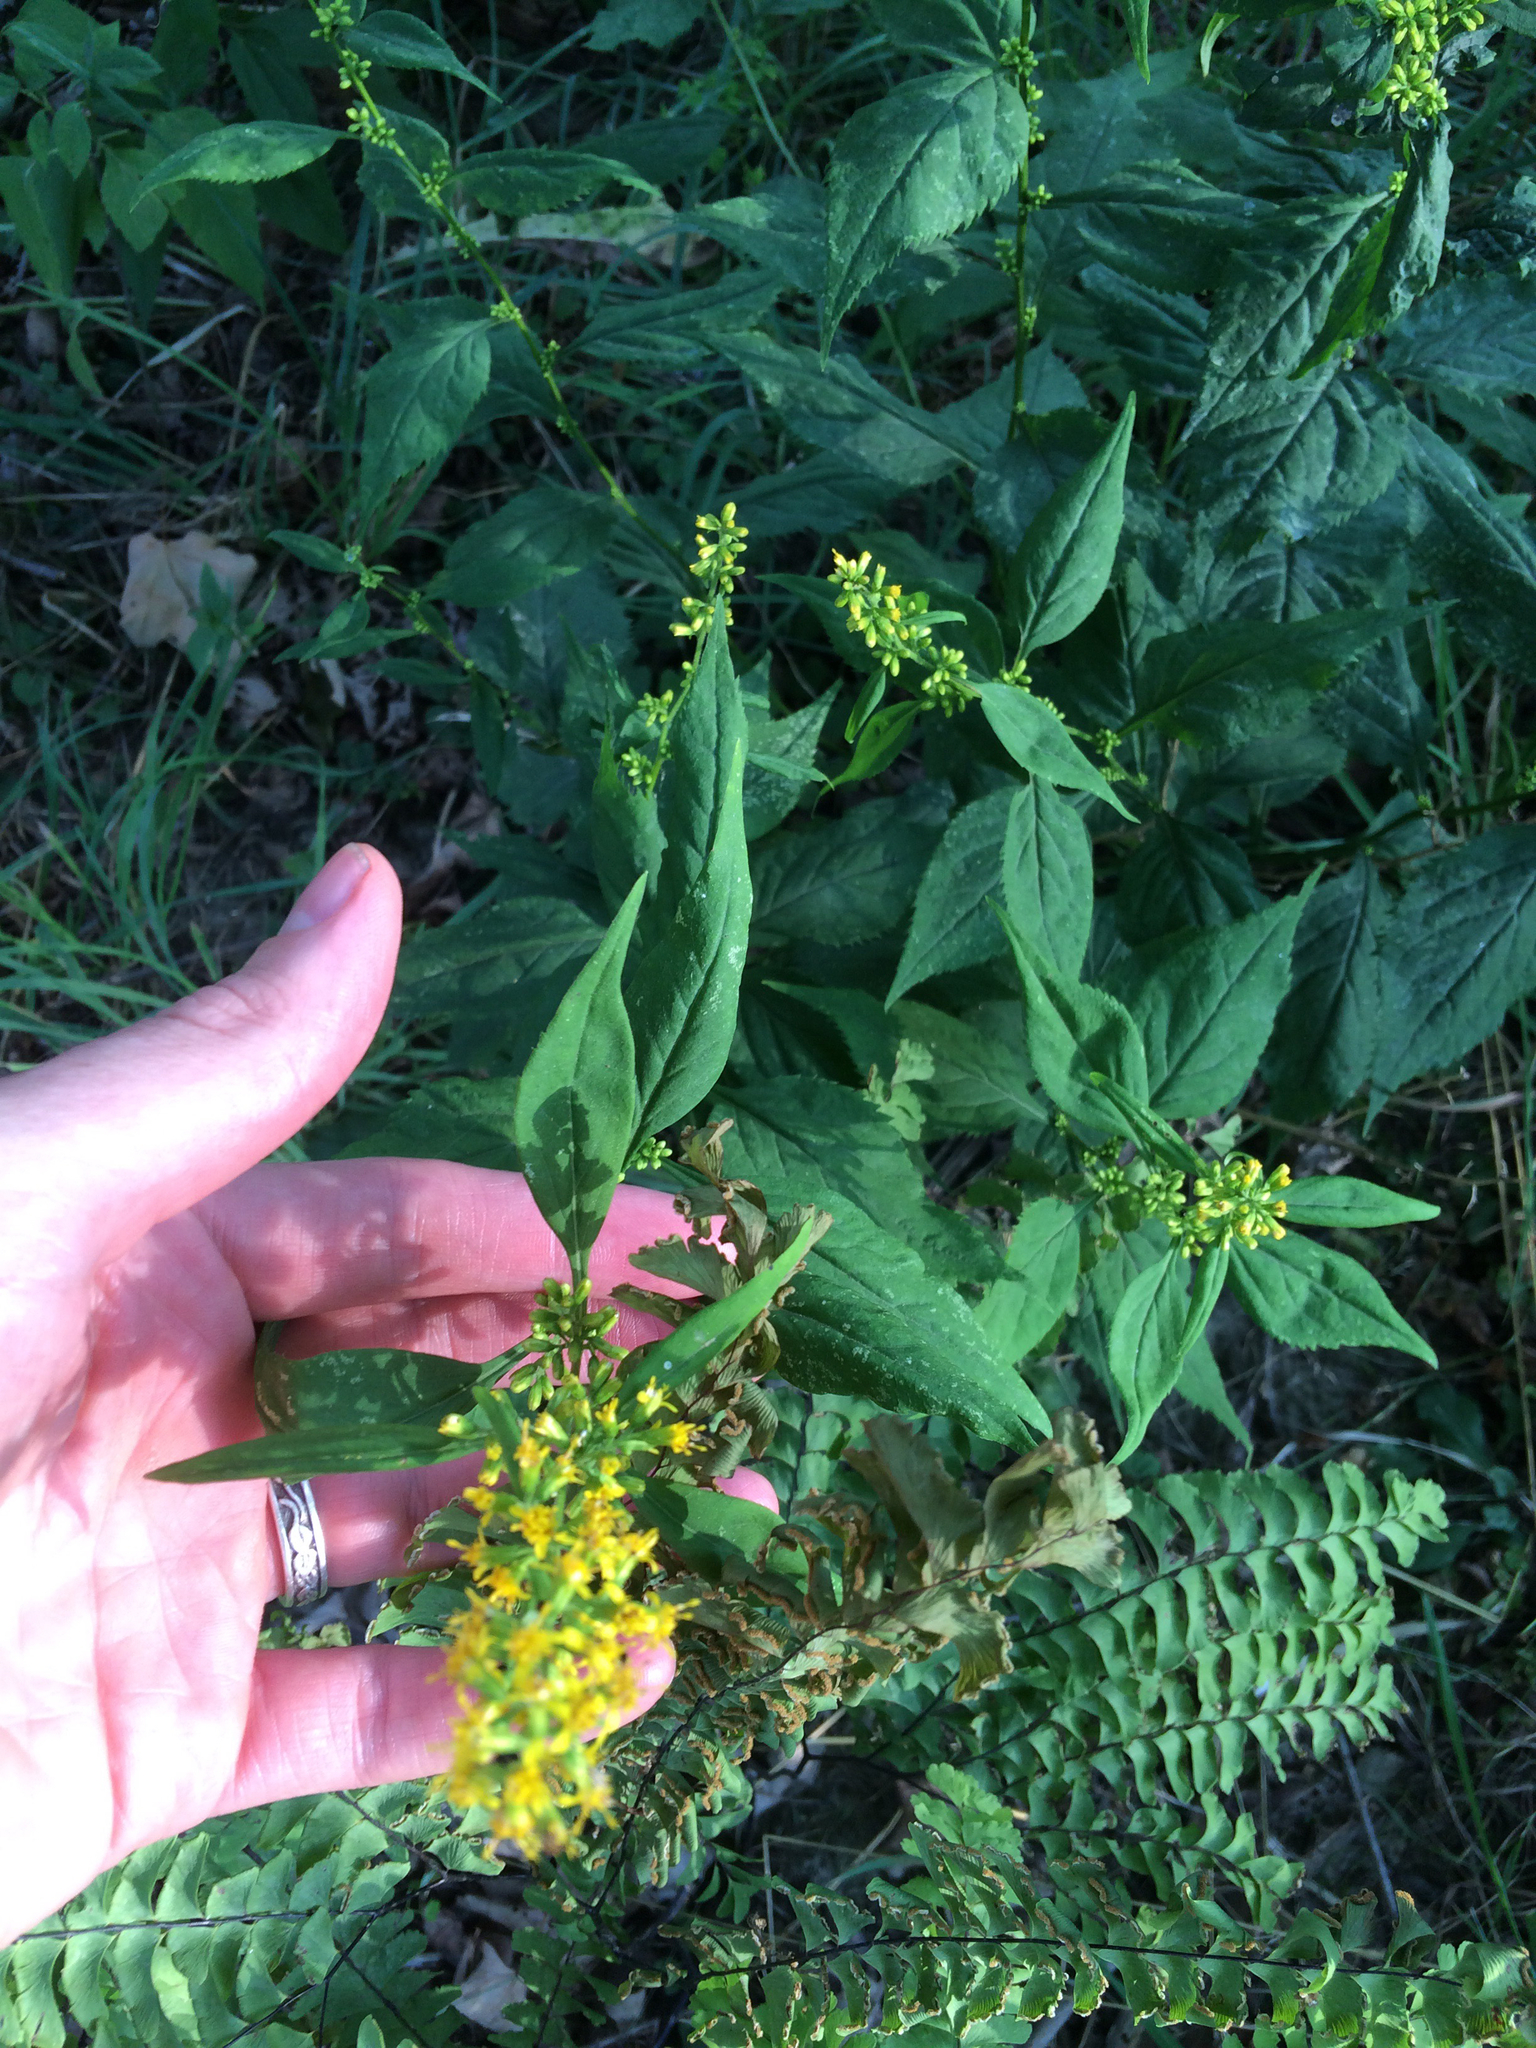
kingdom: Plantae
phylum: Tracheophyta
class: Magnoliopsida
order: Asterales
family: Asteraceae
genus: Solidago
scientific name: Solidago flexicaulis
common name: Zig-zag goldenrod
